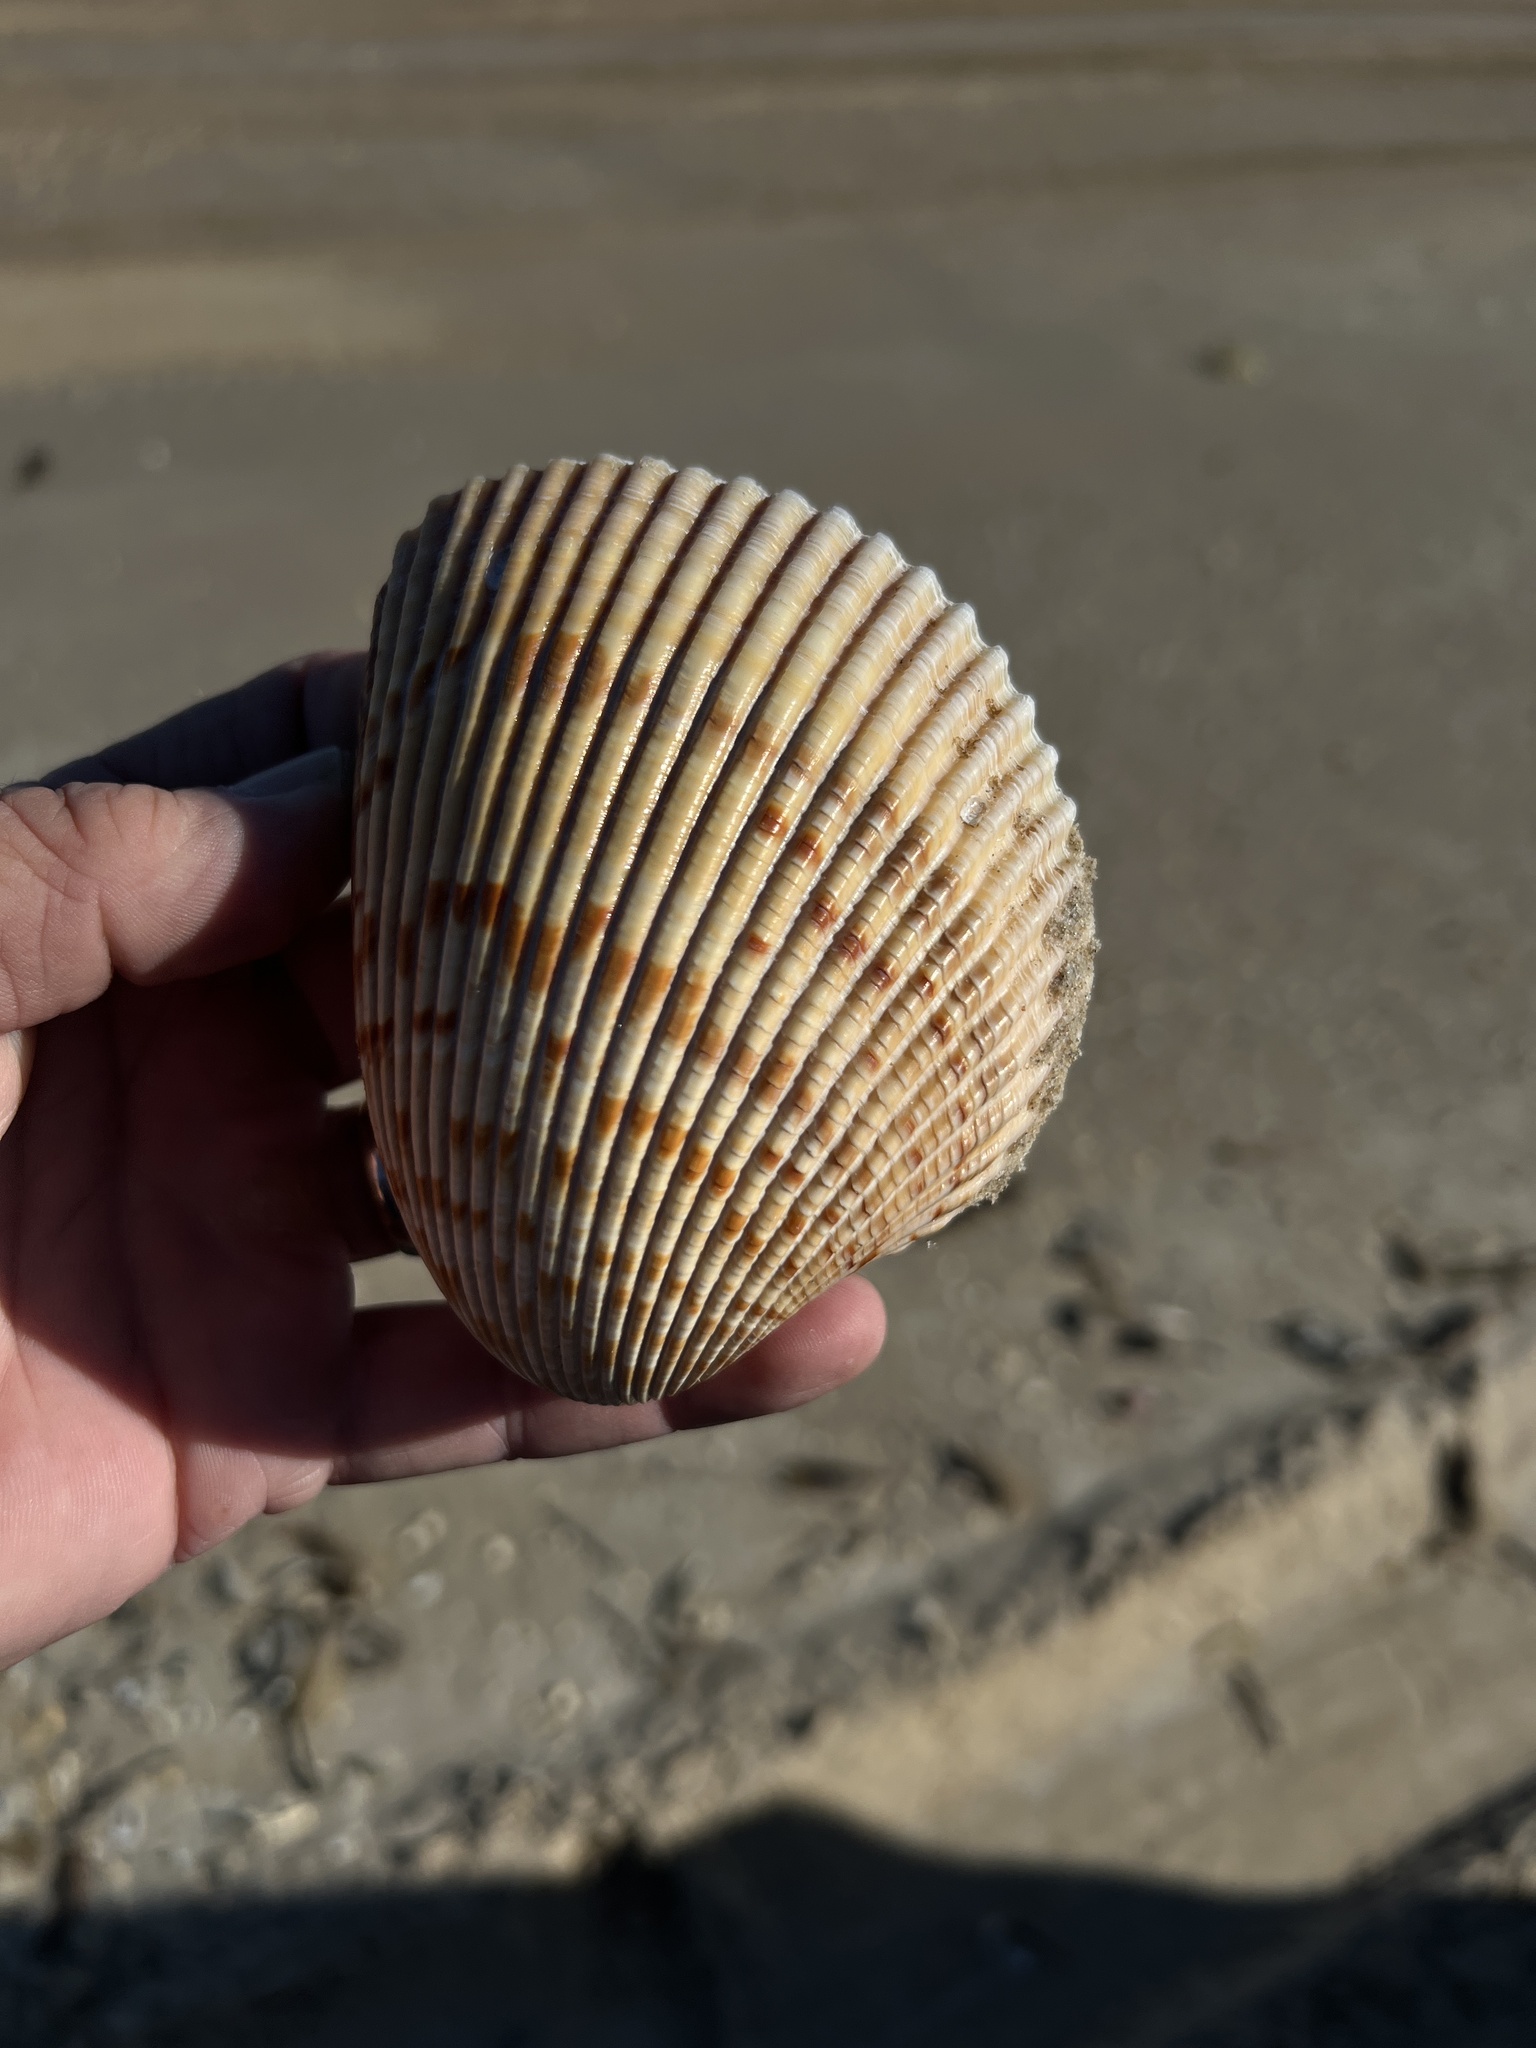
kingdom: Animalia
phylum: Mollusca
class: Bivalvia
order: Cardiida
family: Cardiidae
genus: Dinocardium
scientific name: Dinocardium robustum
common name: Atlantic giant cockle
